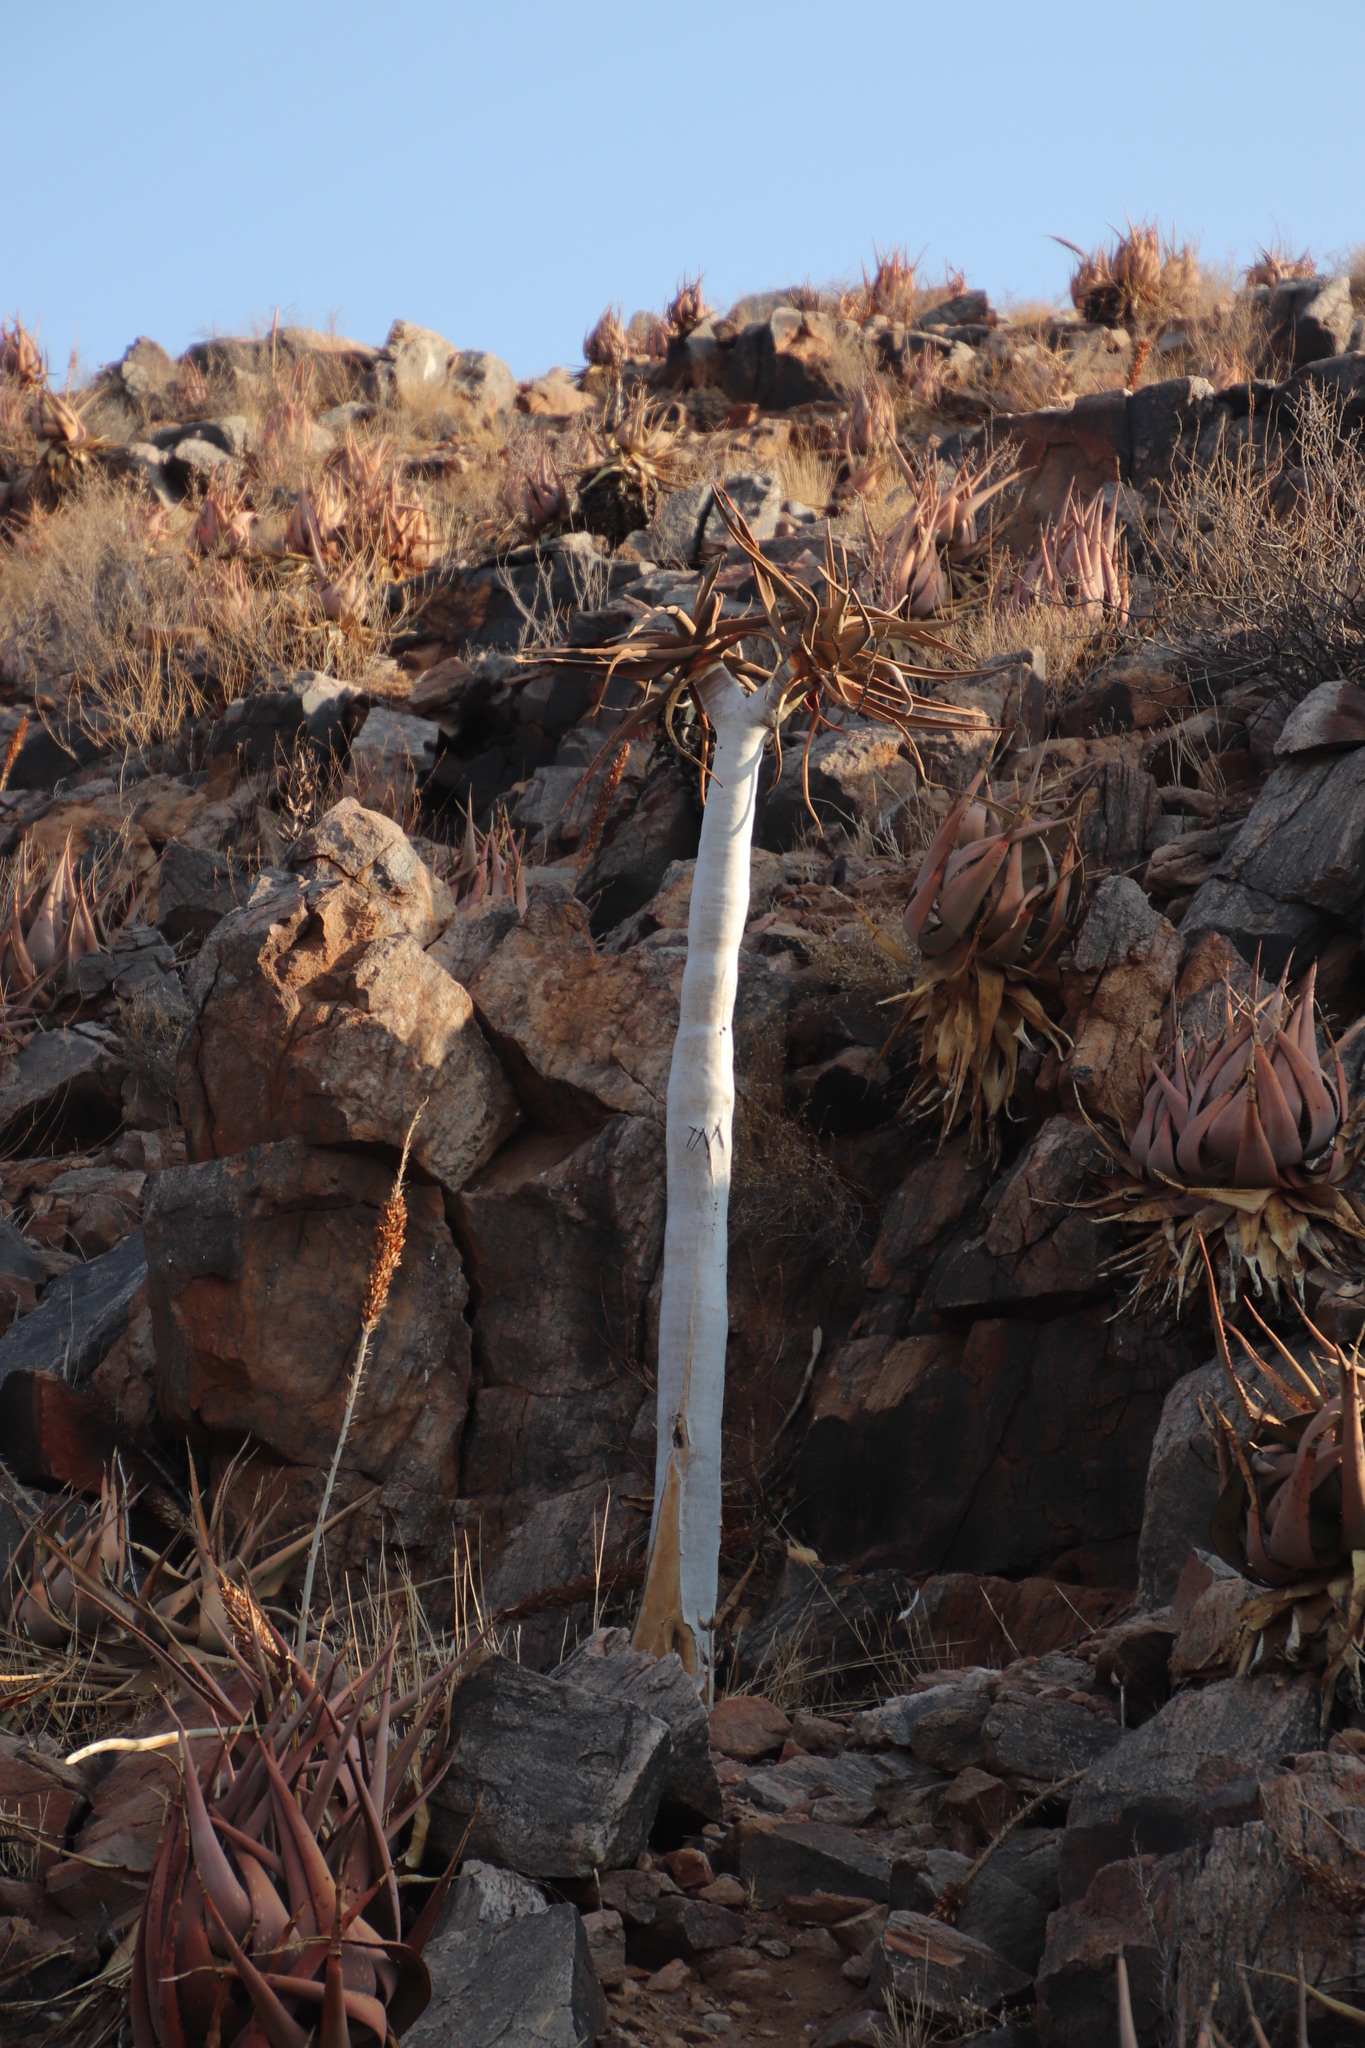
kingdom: Plantae
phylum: Tracheophyta
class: Liliopsida
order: Asparagales
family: Asphodelaceae
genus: Aloidendron
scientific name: Aloidendron dichotomum
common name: Quiver tree
